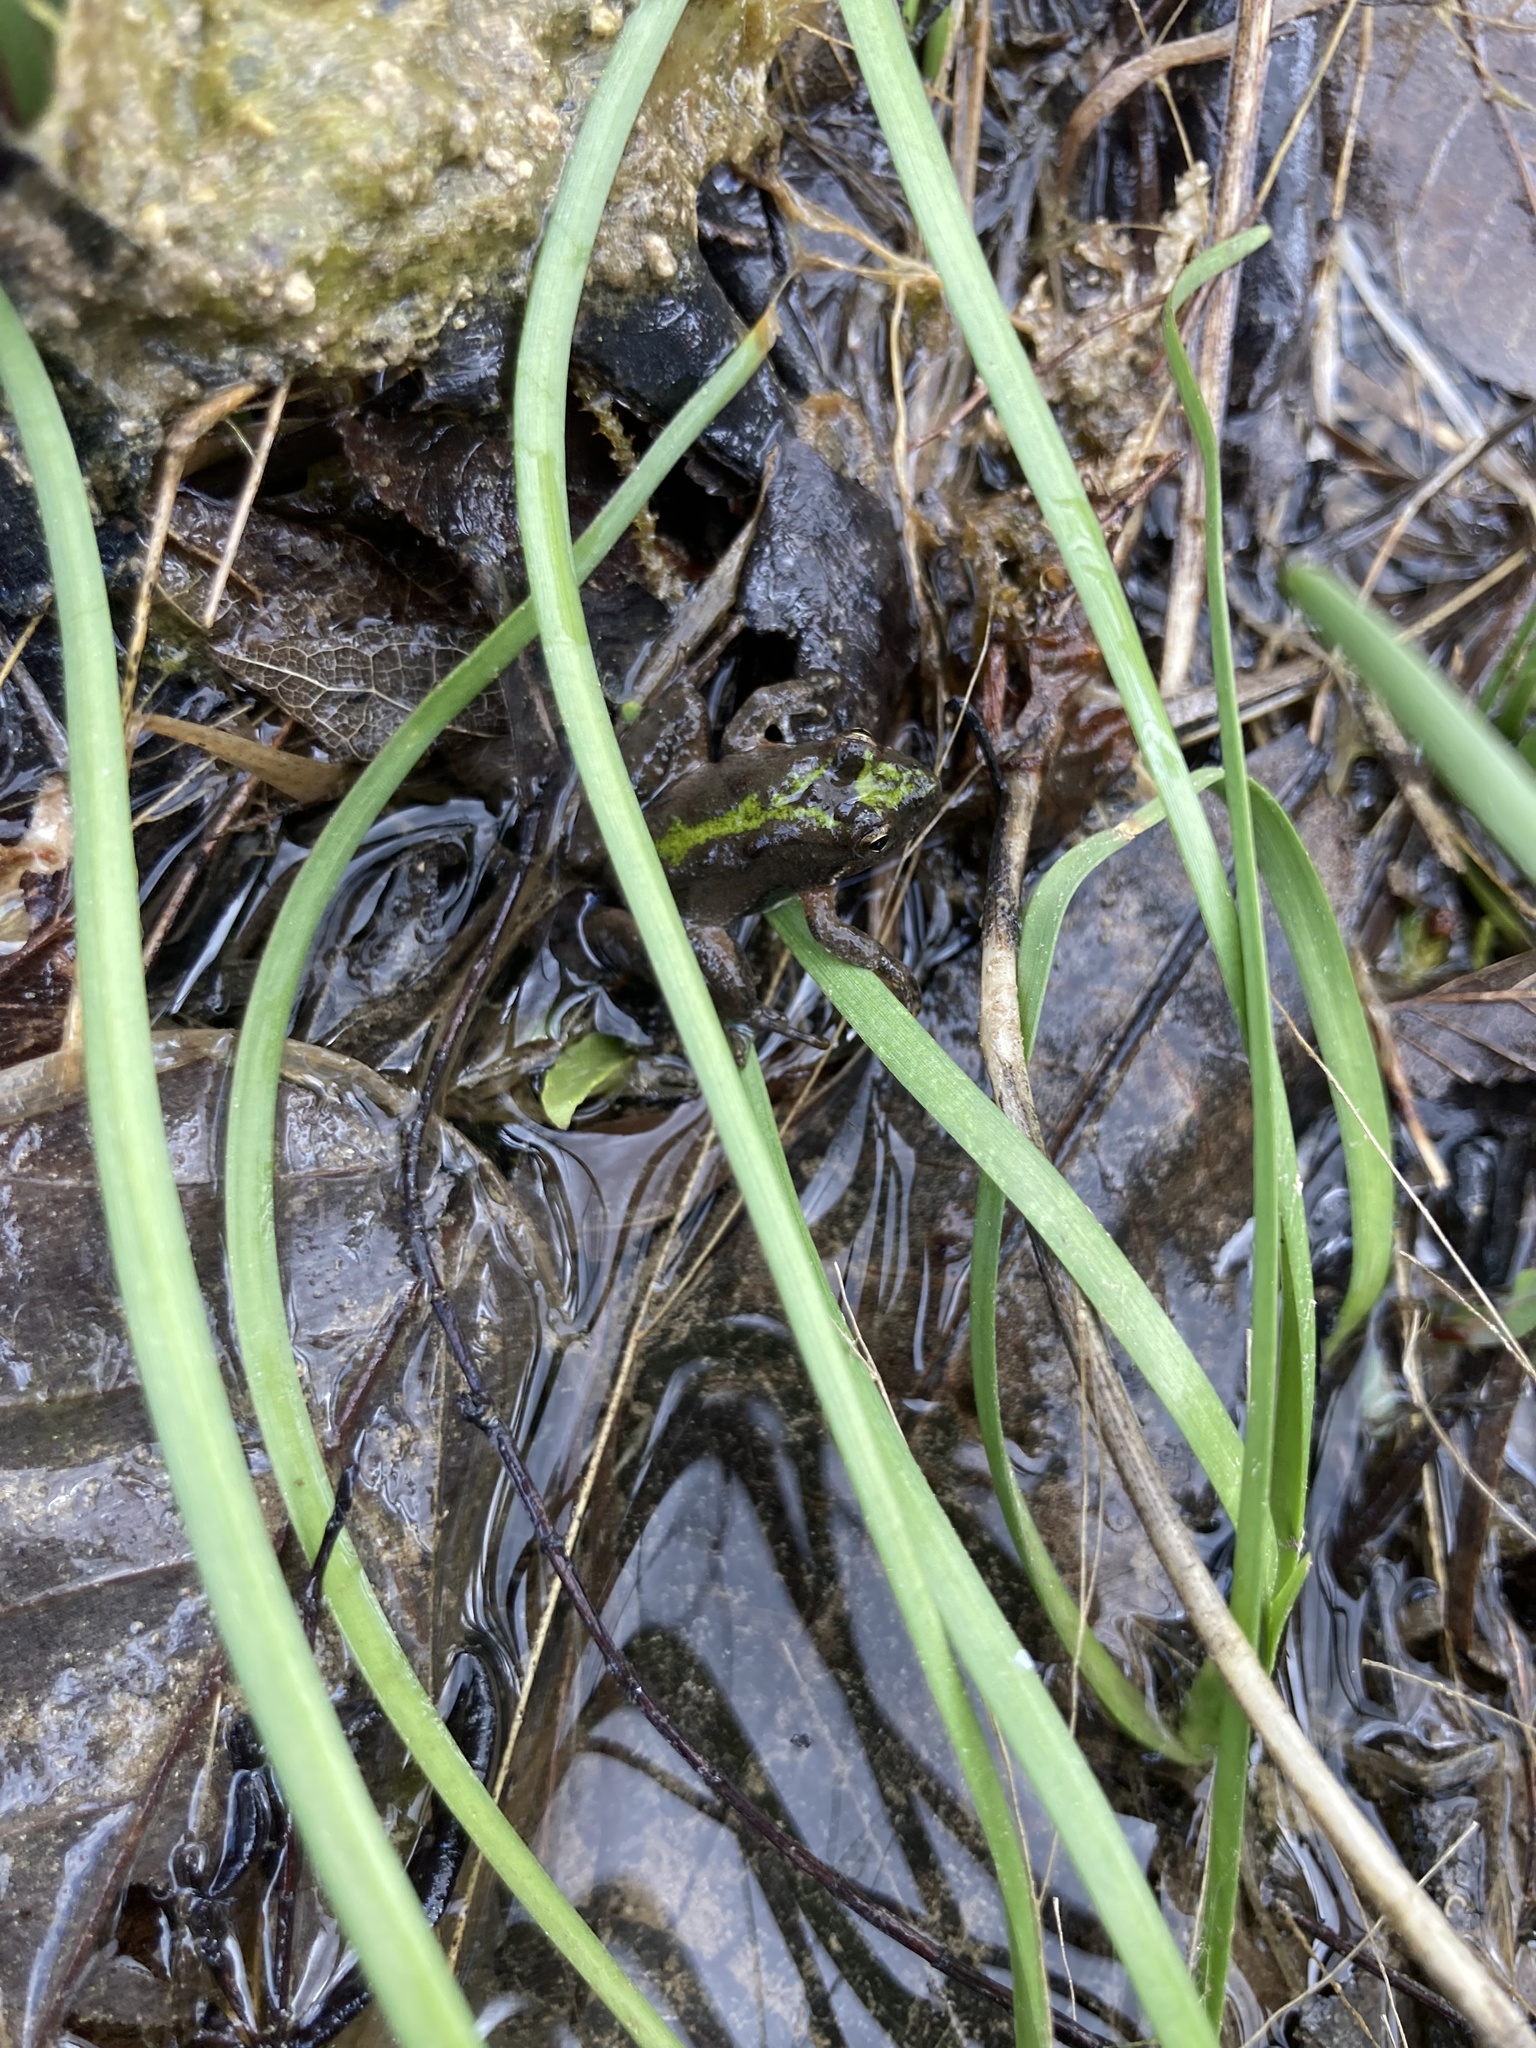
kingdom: Animalia
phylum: Chordata
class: Amphibia
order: Anura
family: Hylidae
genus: Acris
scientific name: Acris crepitans
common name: Northern cricket frog
